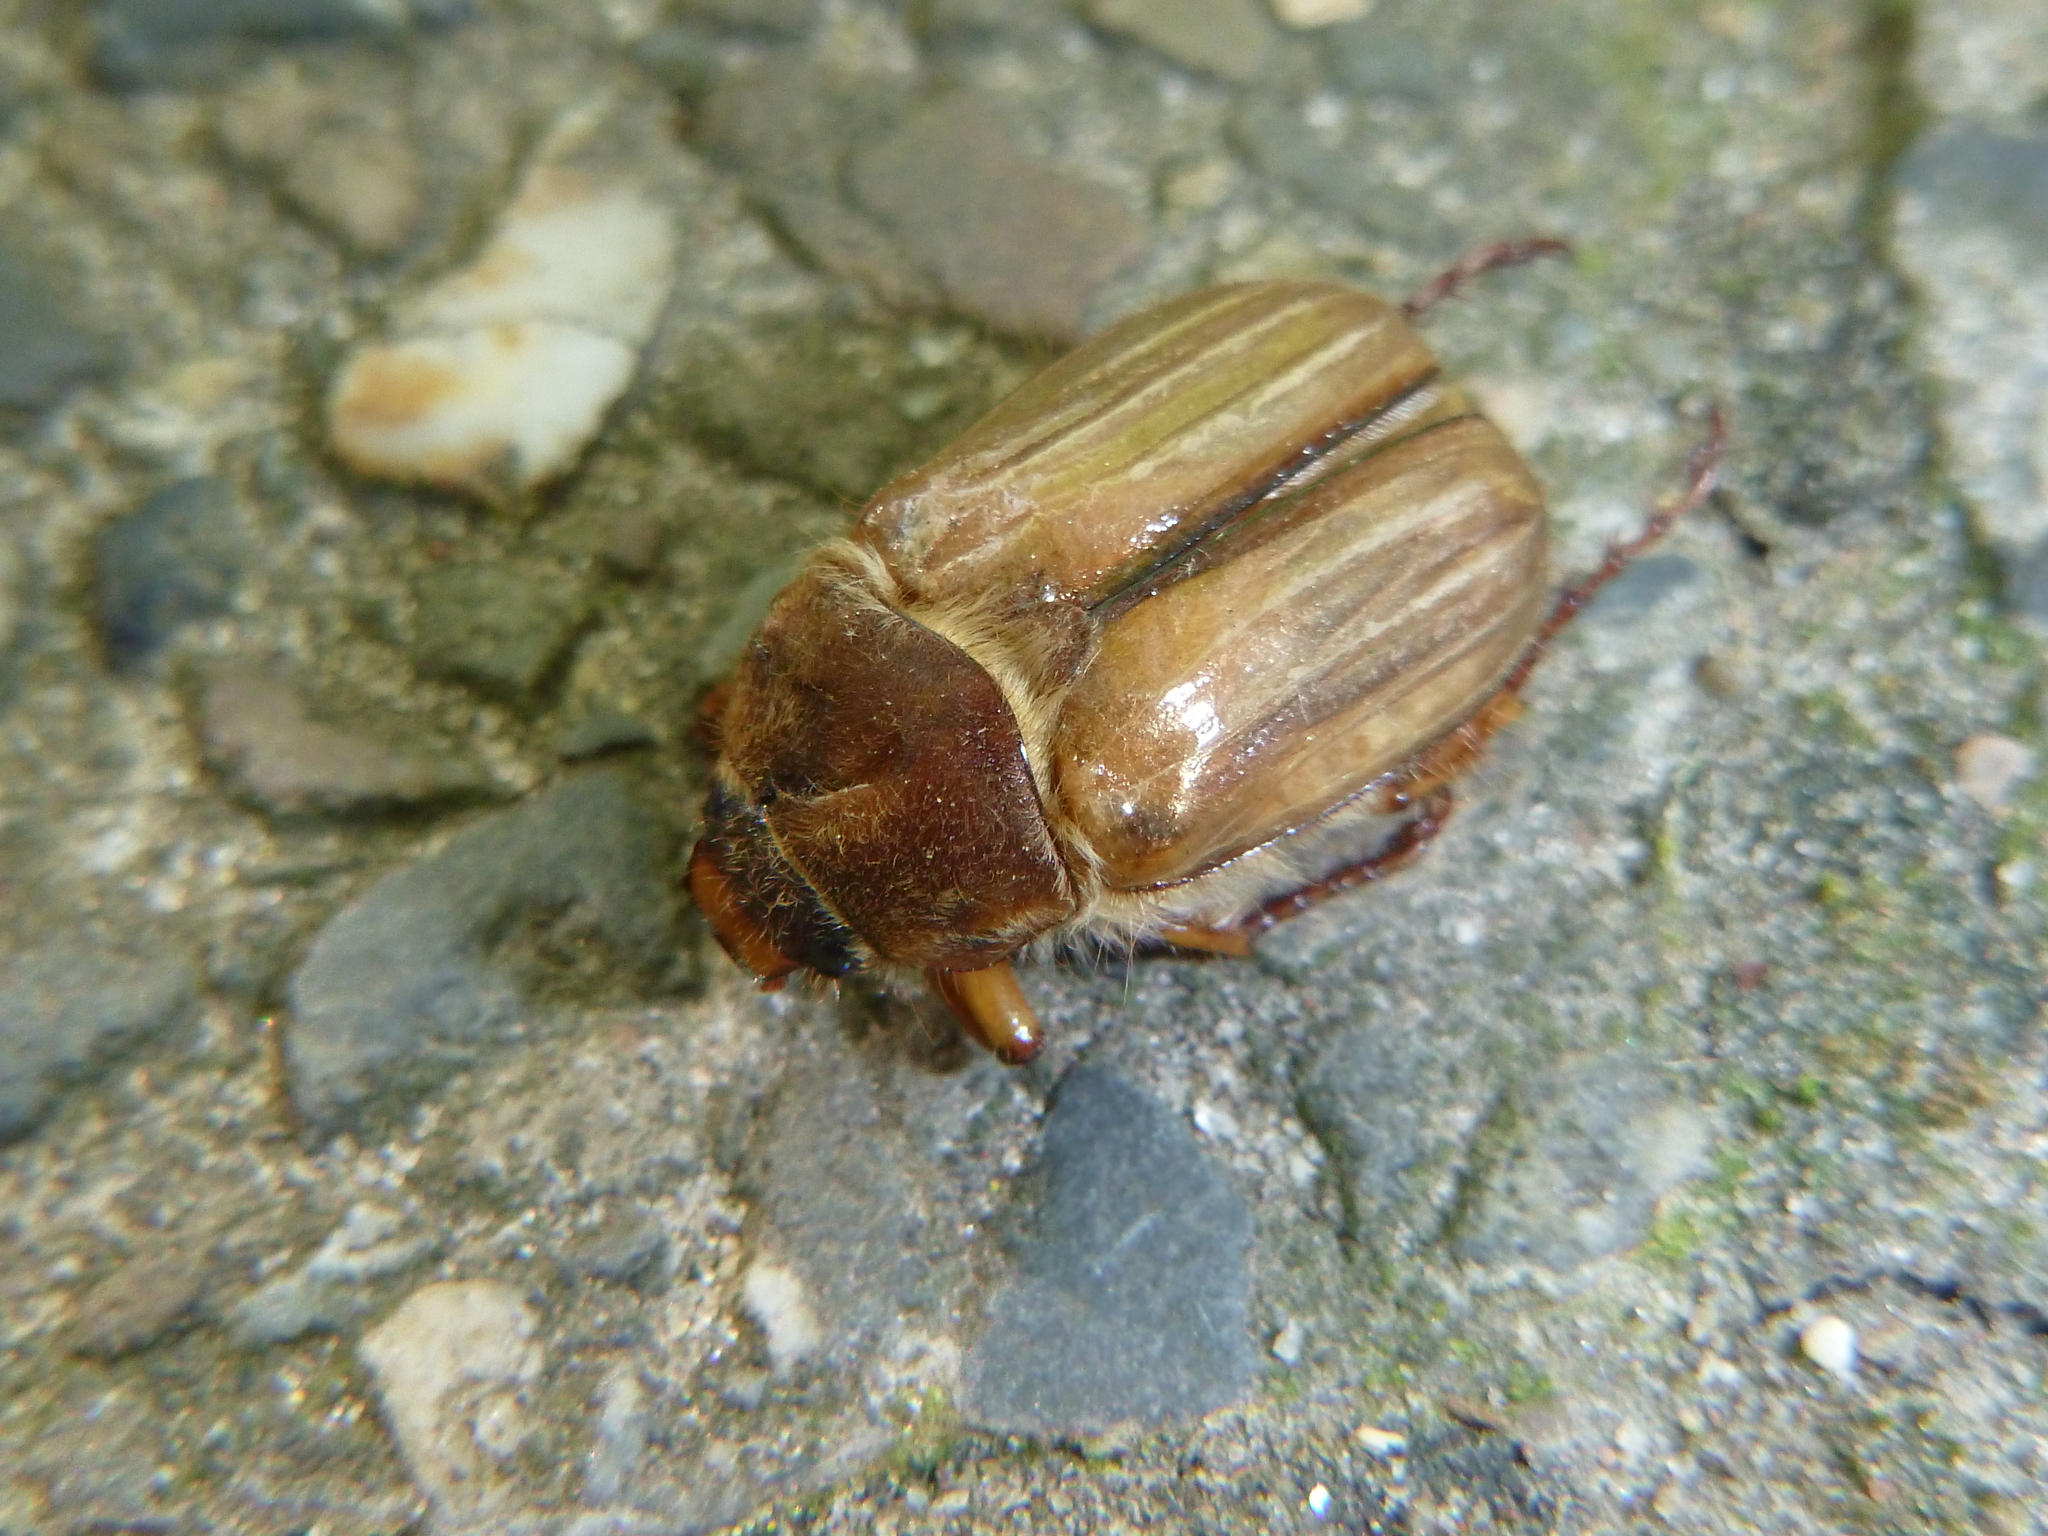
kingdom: Animalia
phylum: Arthropoda
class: Insecta
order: Coleoptera
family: Scarabaeidae
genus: Amphimallon
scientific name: Amphimallon solstitiale
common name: Summer chafer
